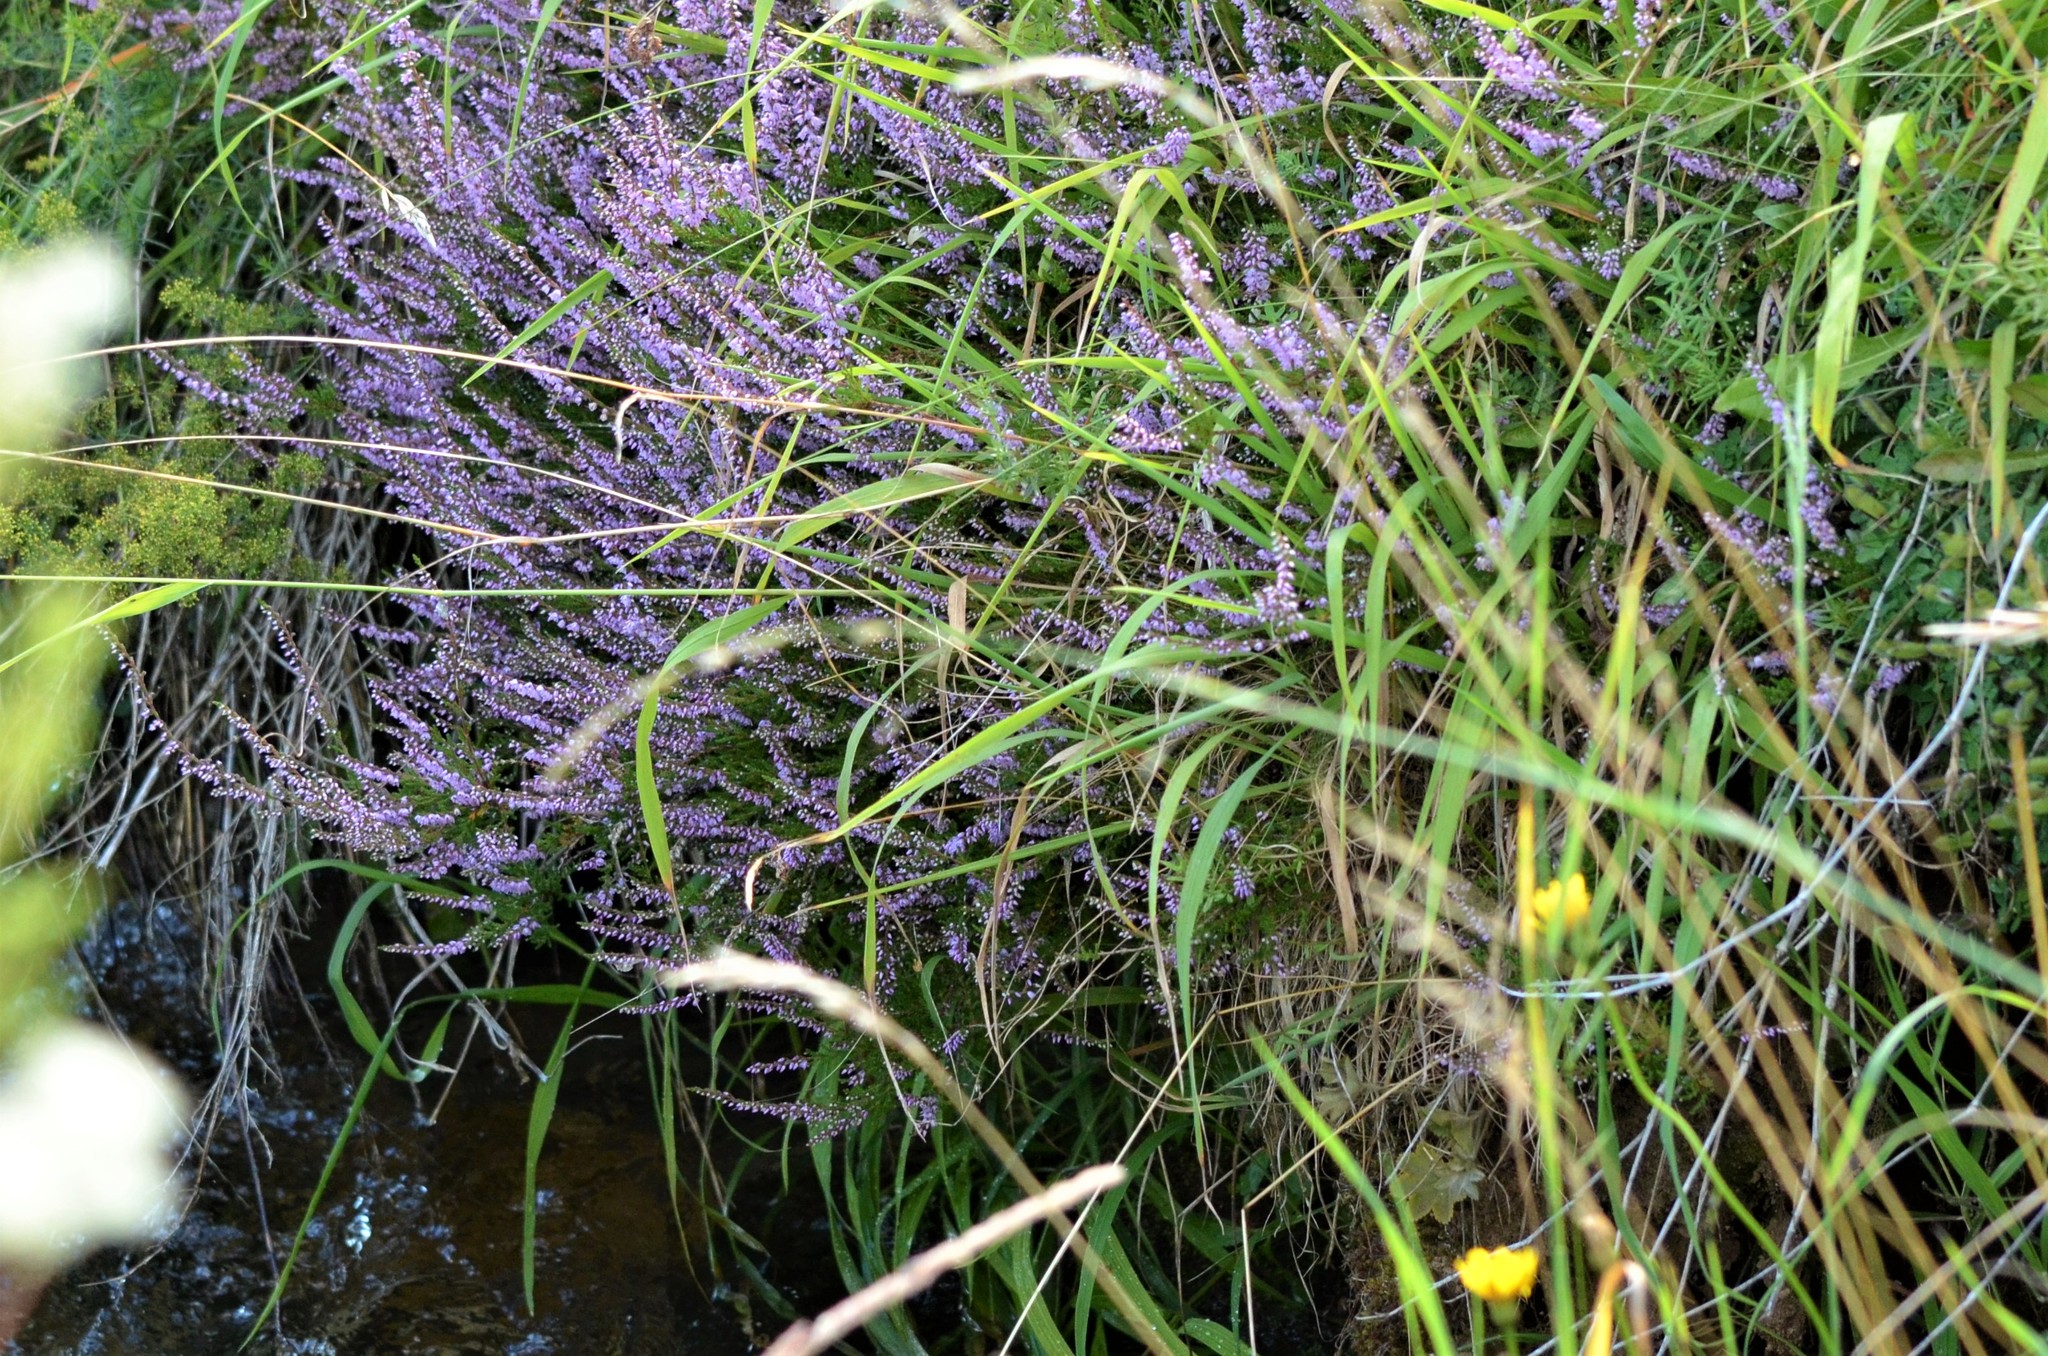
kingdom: Plantae
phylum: Tracheophyta
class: Magnoliopsida
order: Ericales
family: Ericaceae
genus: Calluna
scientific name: Calluna vulgaris
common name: Heather
